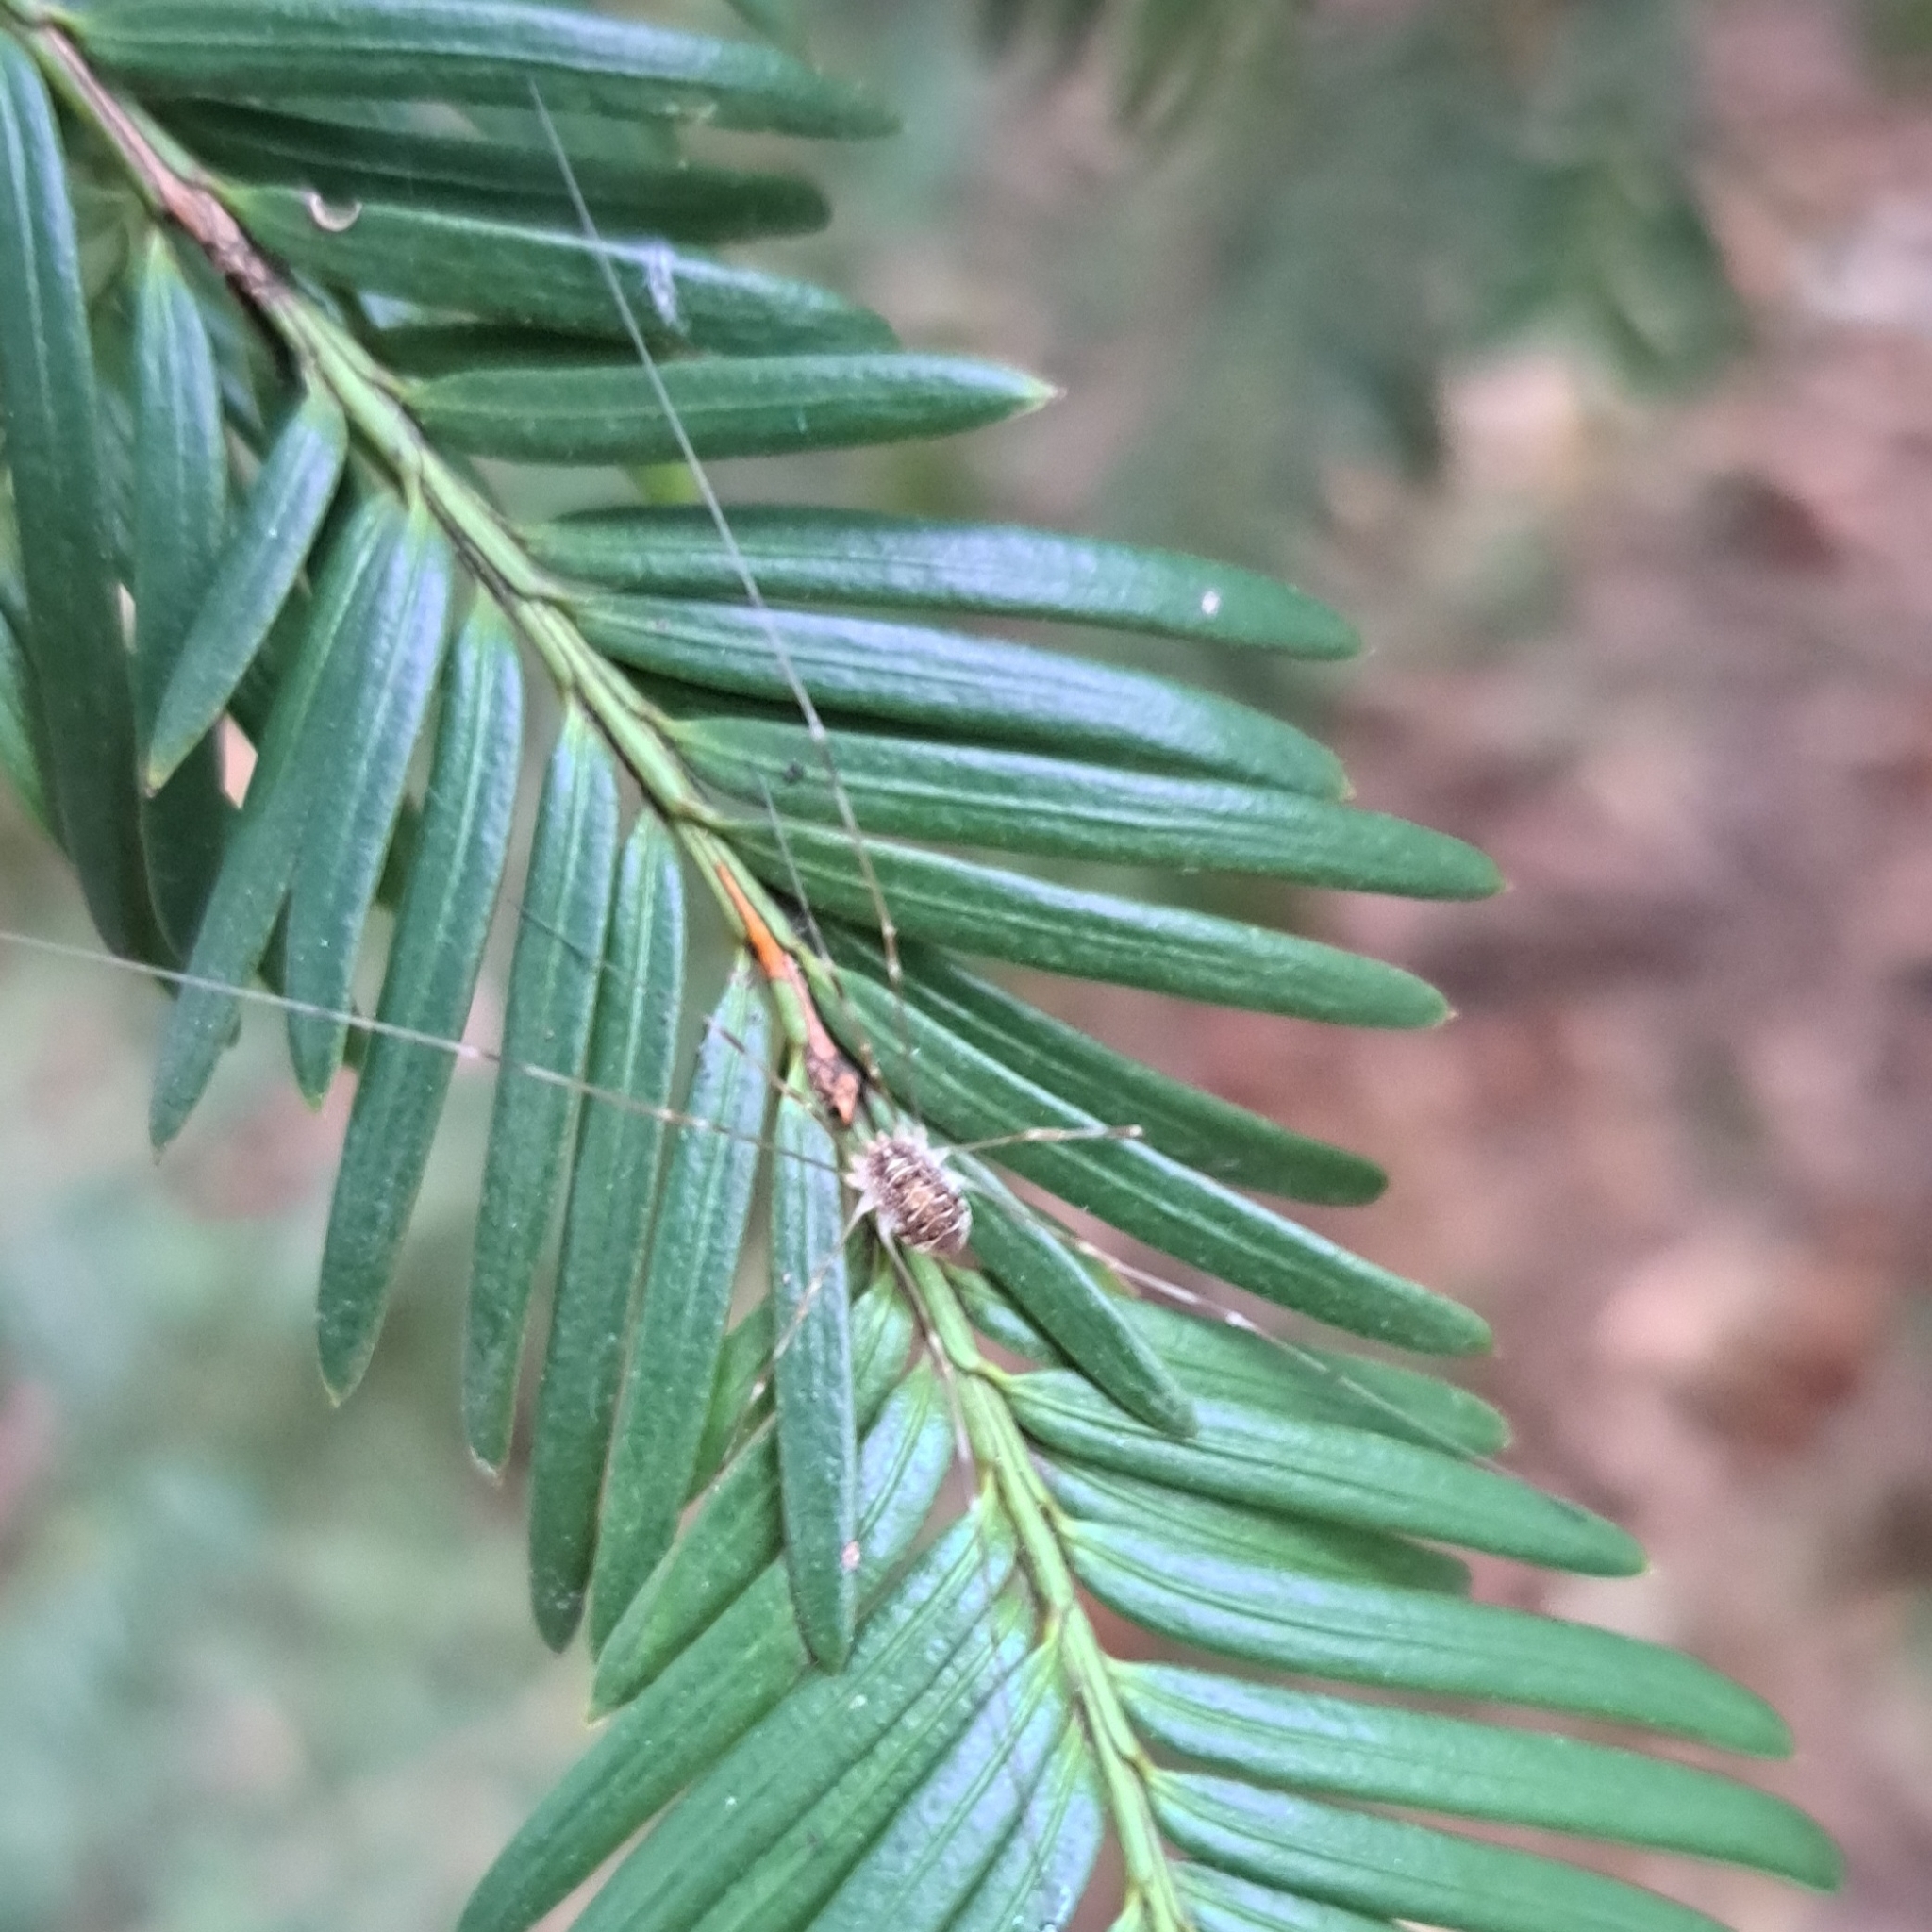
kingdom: Animalia
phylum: Arthropoda
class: Arachnida
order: Opiliones
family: Phalangiidae
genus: Opilio
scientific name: Opilio canestrinii
